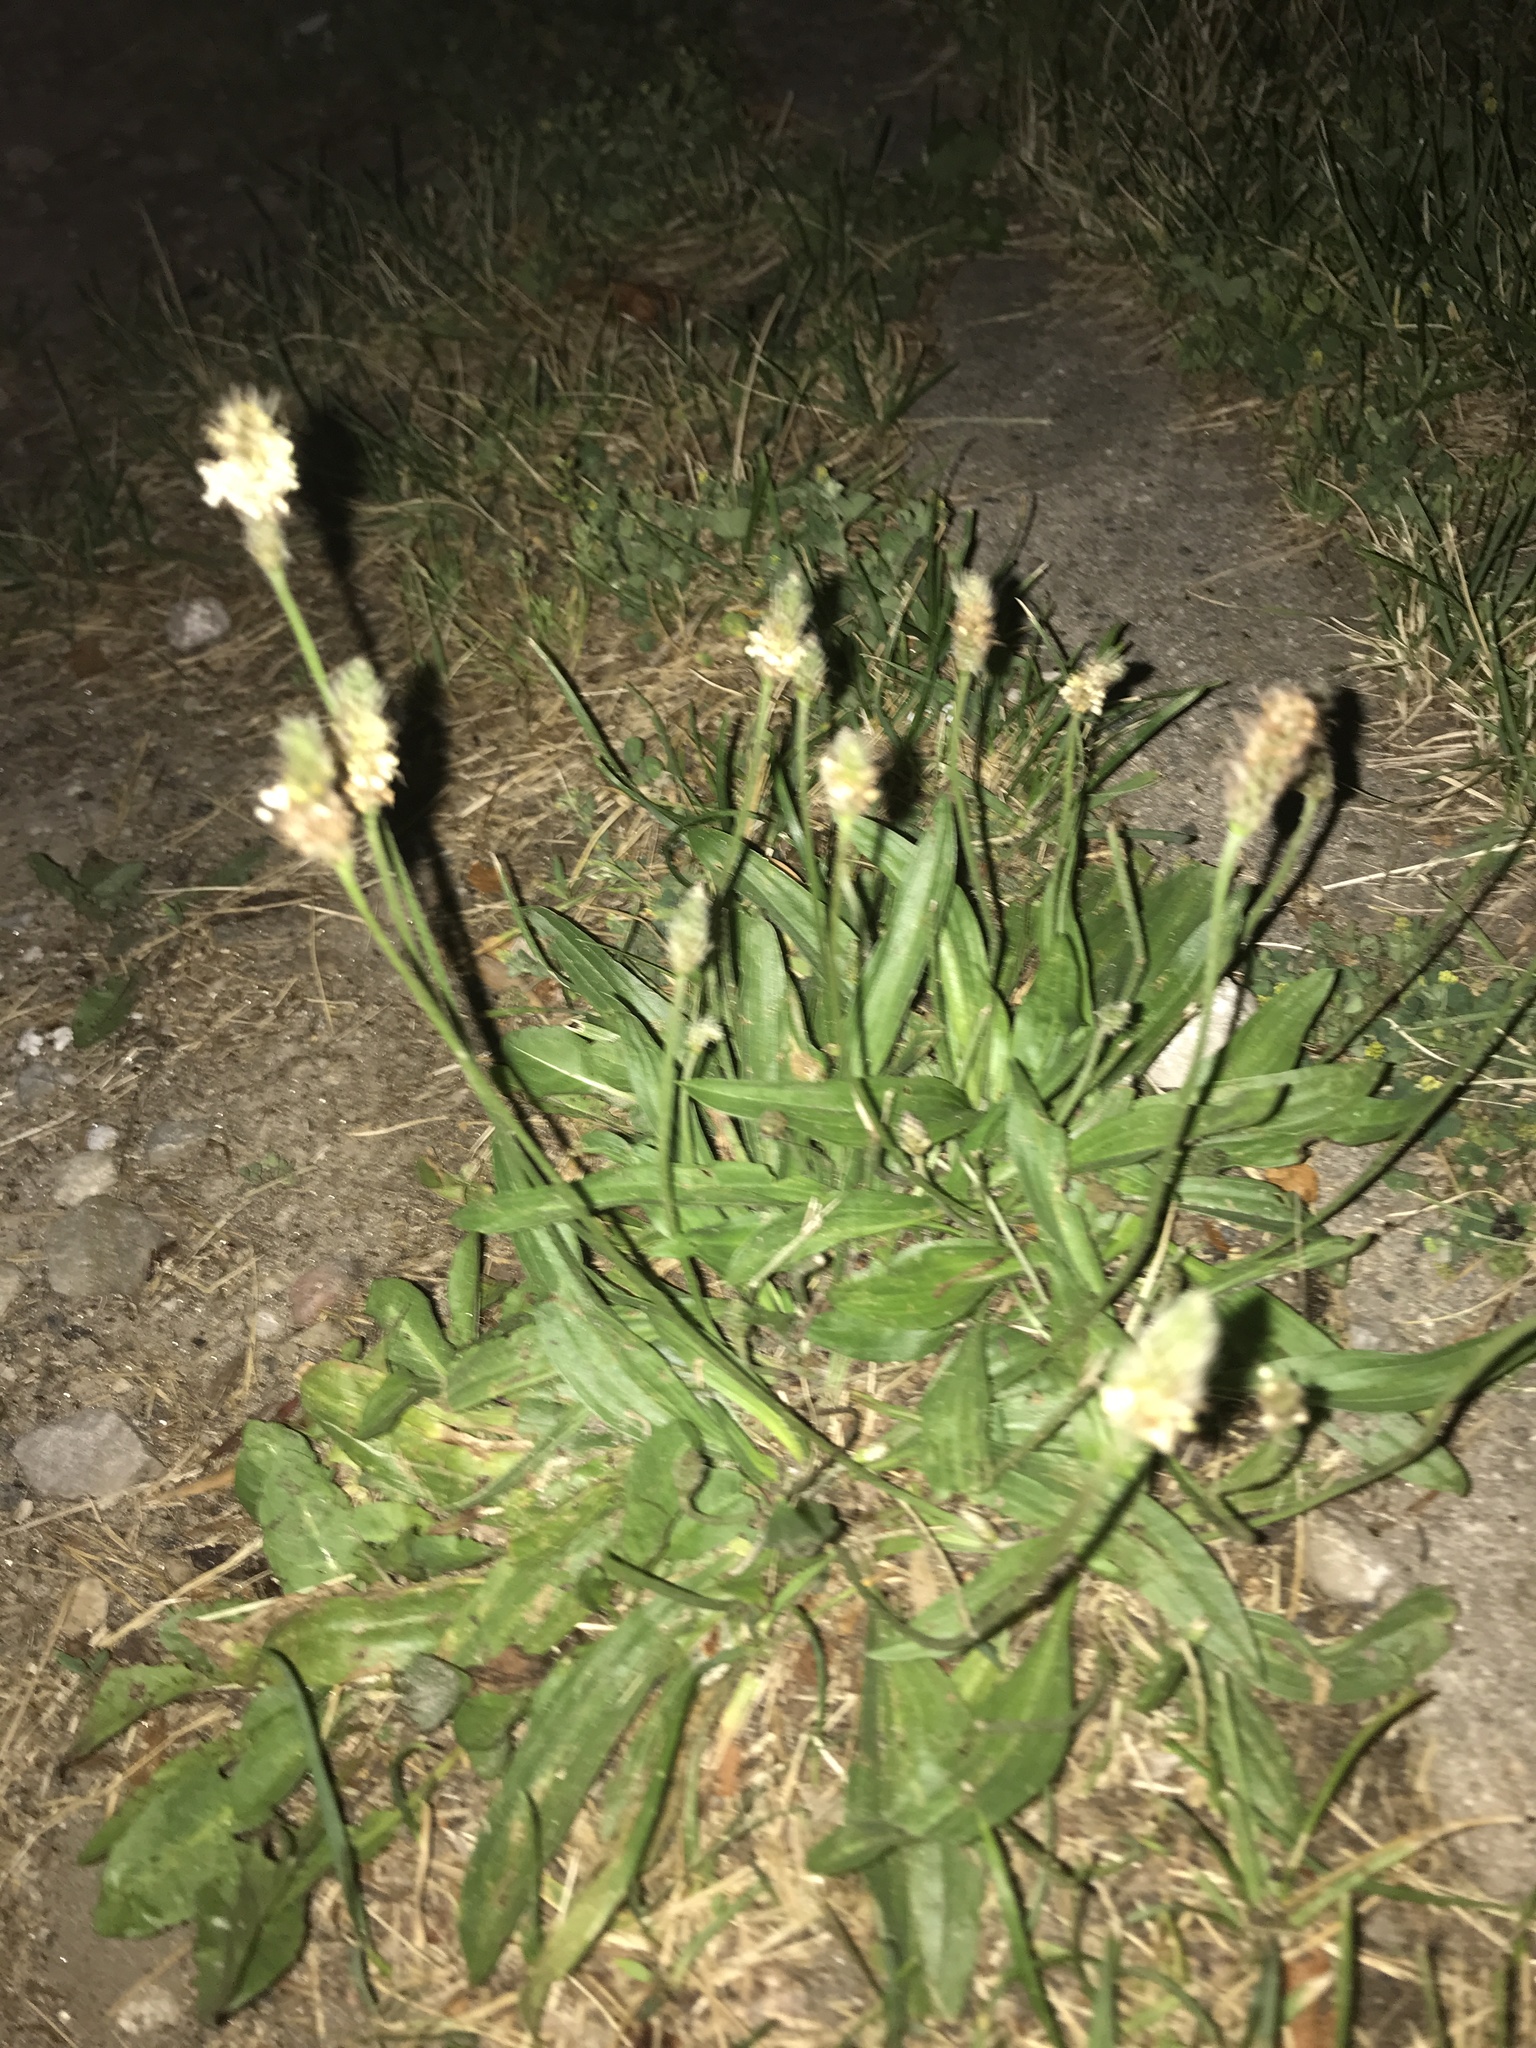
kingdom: Plantae
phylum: Tracheophyta
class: Magnoliopsida
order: Lamiales
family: Plantaginaceae
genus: Plantago
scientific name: Plantago lanceolata
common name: Ribwort plantain
